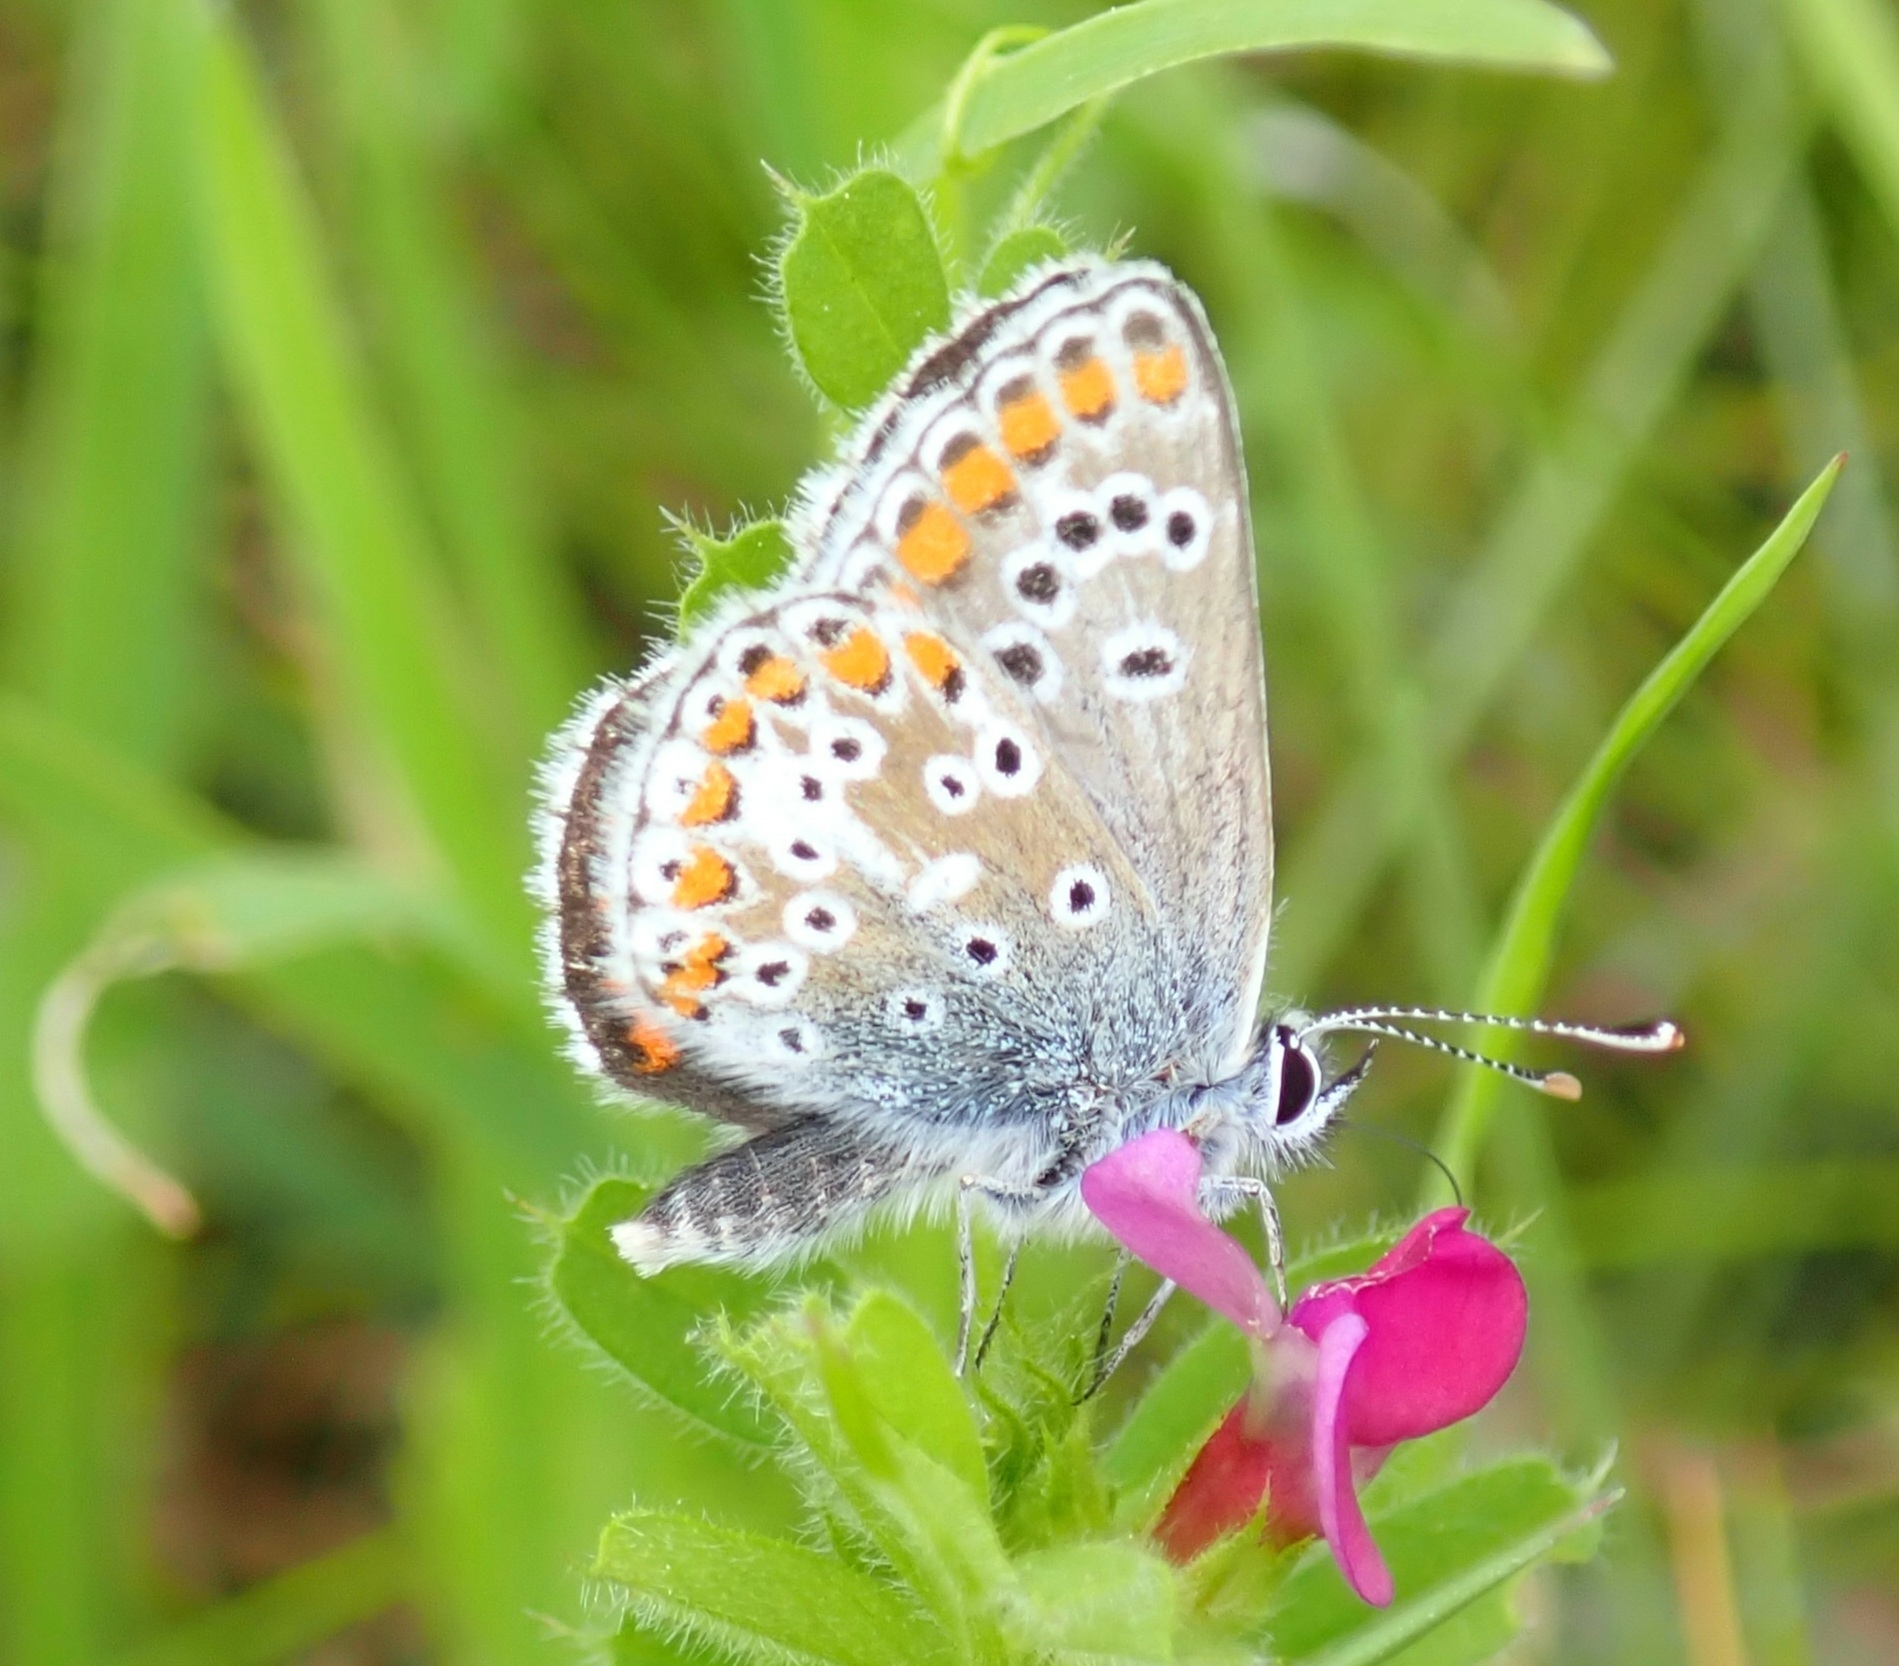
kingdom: Animalia
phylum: Arthropoda
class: Insecta
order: Lepidoptera
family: Lycaenidae
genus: Aricia
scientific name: Aricia agestis
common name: Brown argus
